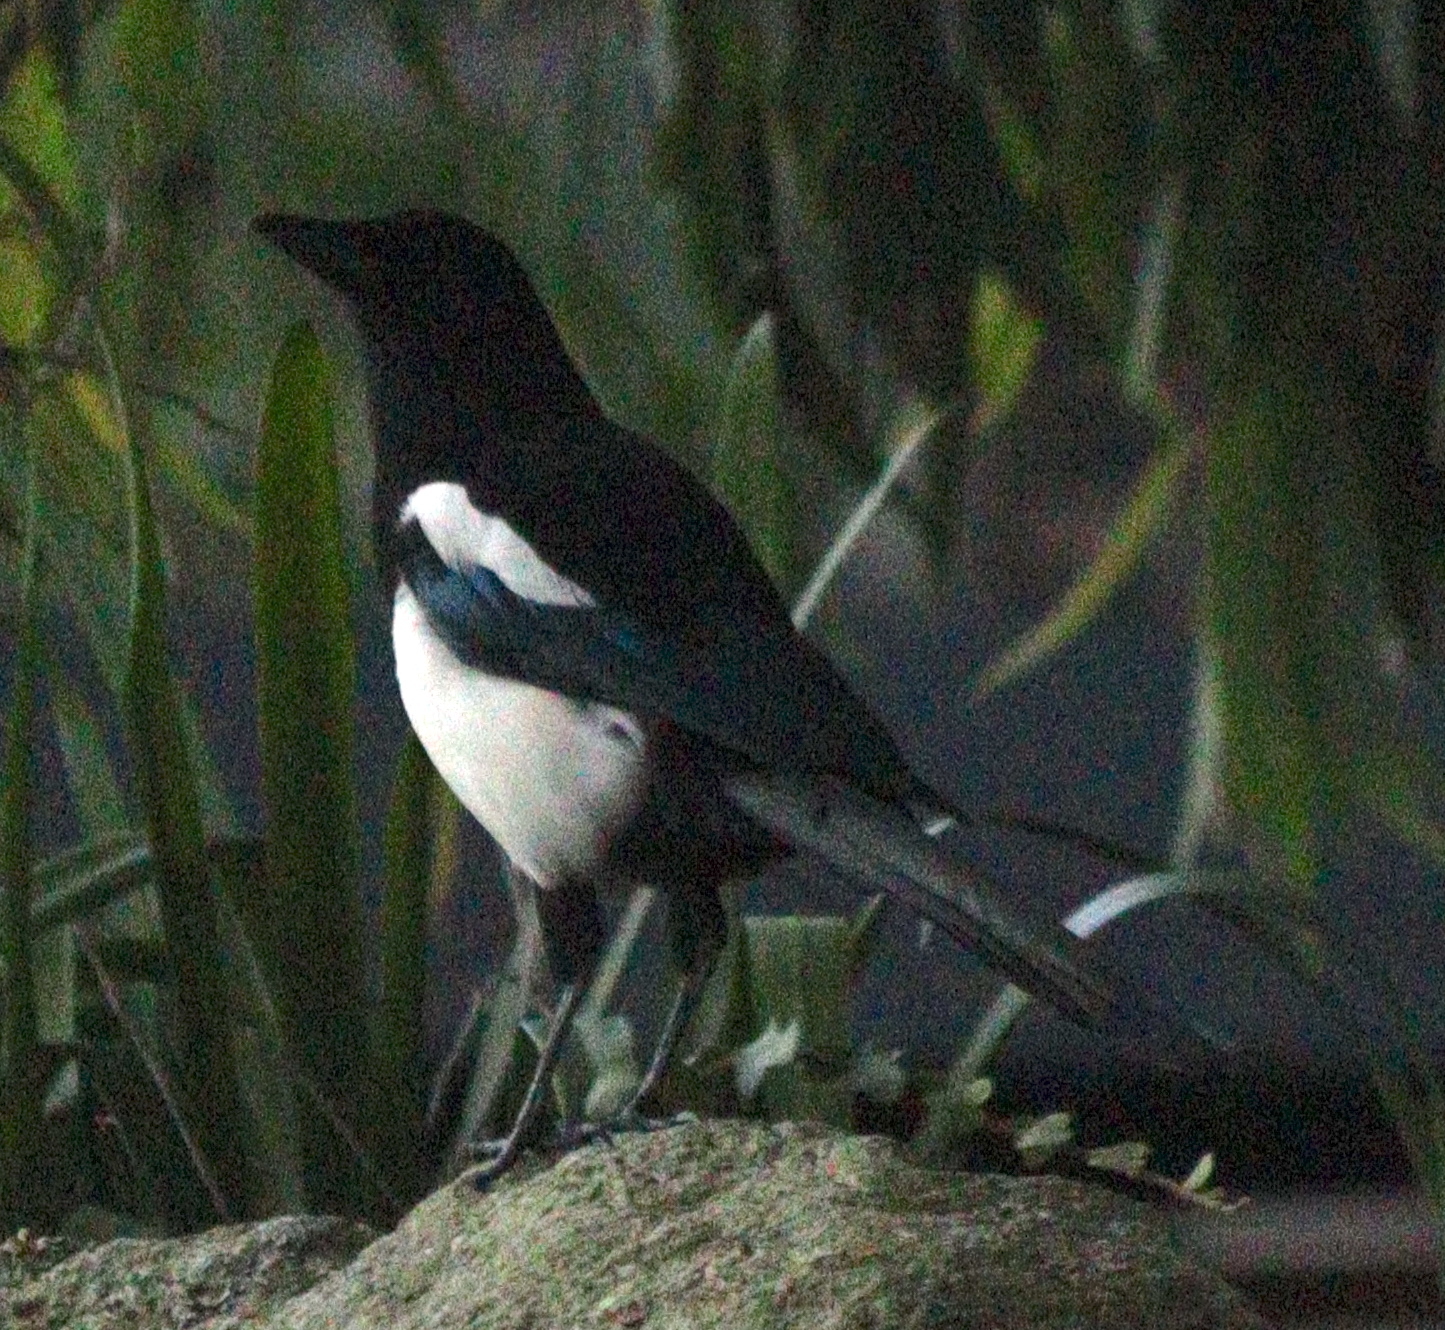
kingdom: Animalia
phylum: Chordata
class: Aves
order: Passeriformes
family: Corvidae
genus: Pica
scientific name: Pica pica
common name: Eurasian magpie
